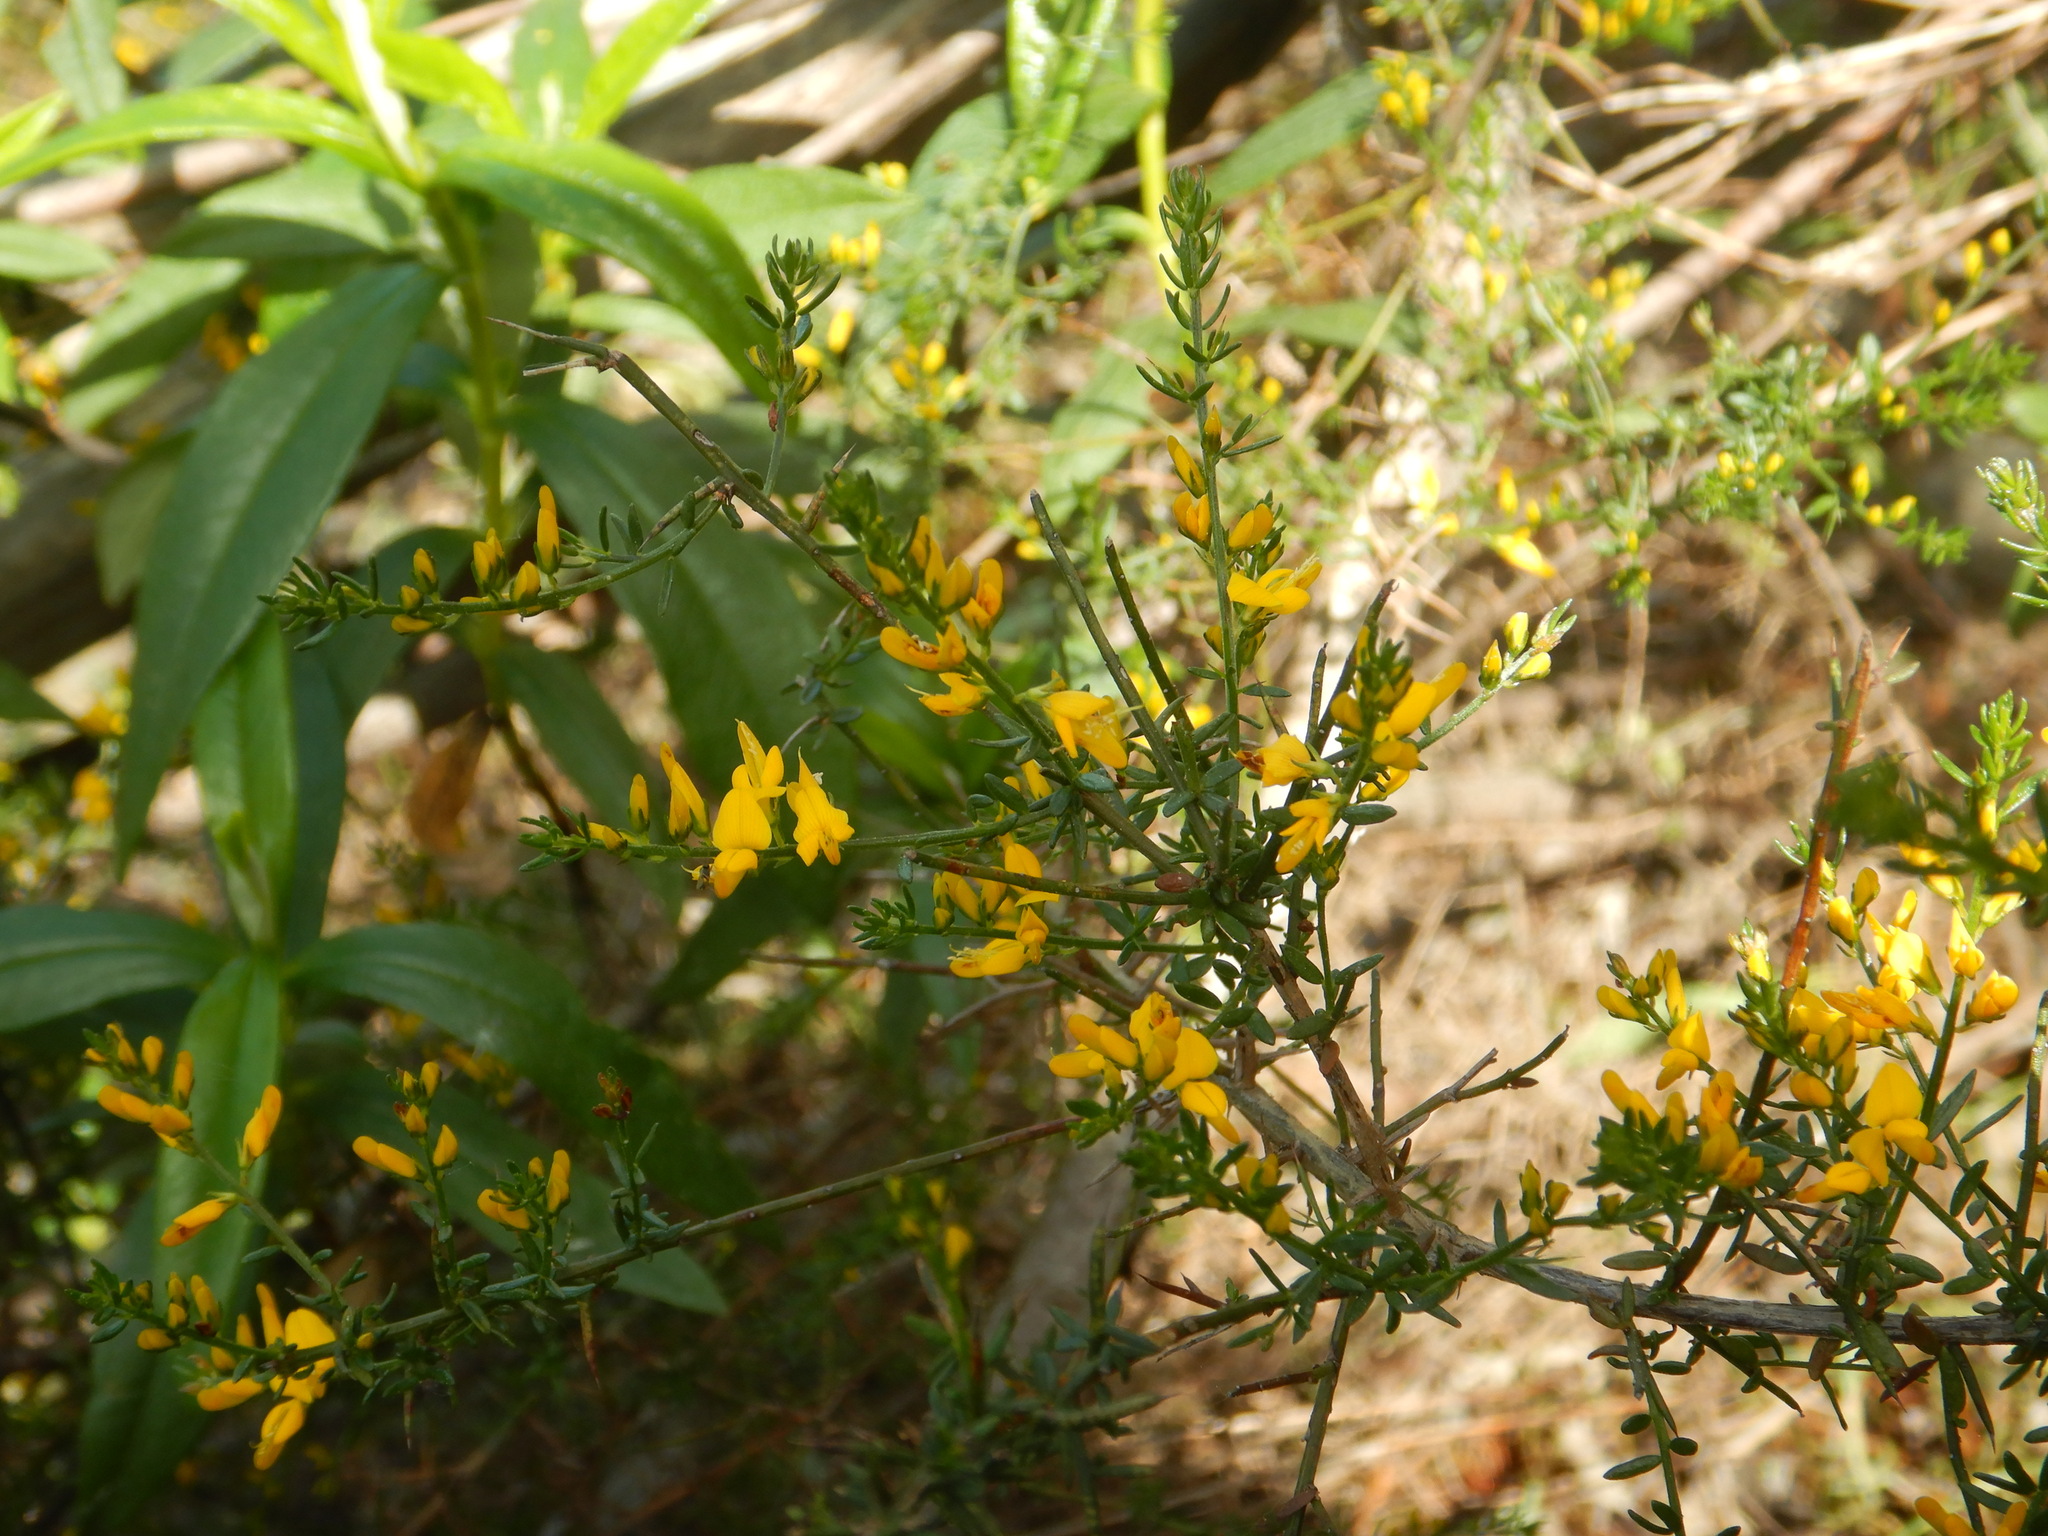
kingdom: Plantae
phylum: Tracheophyta
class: Magnoliopsida
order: Fabales
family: Fabaceae
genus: Genista
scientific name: Genista triacanthos
